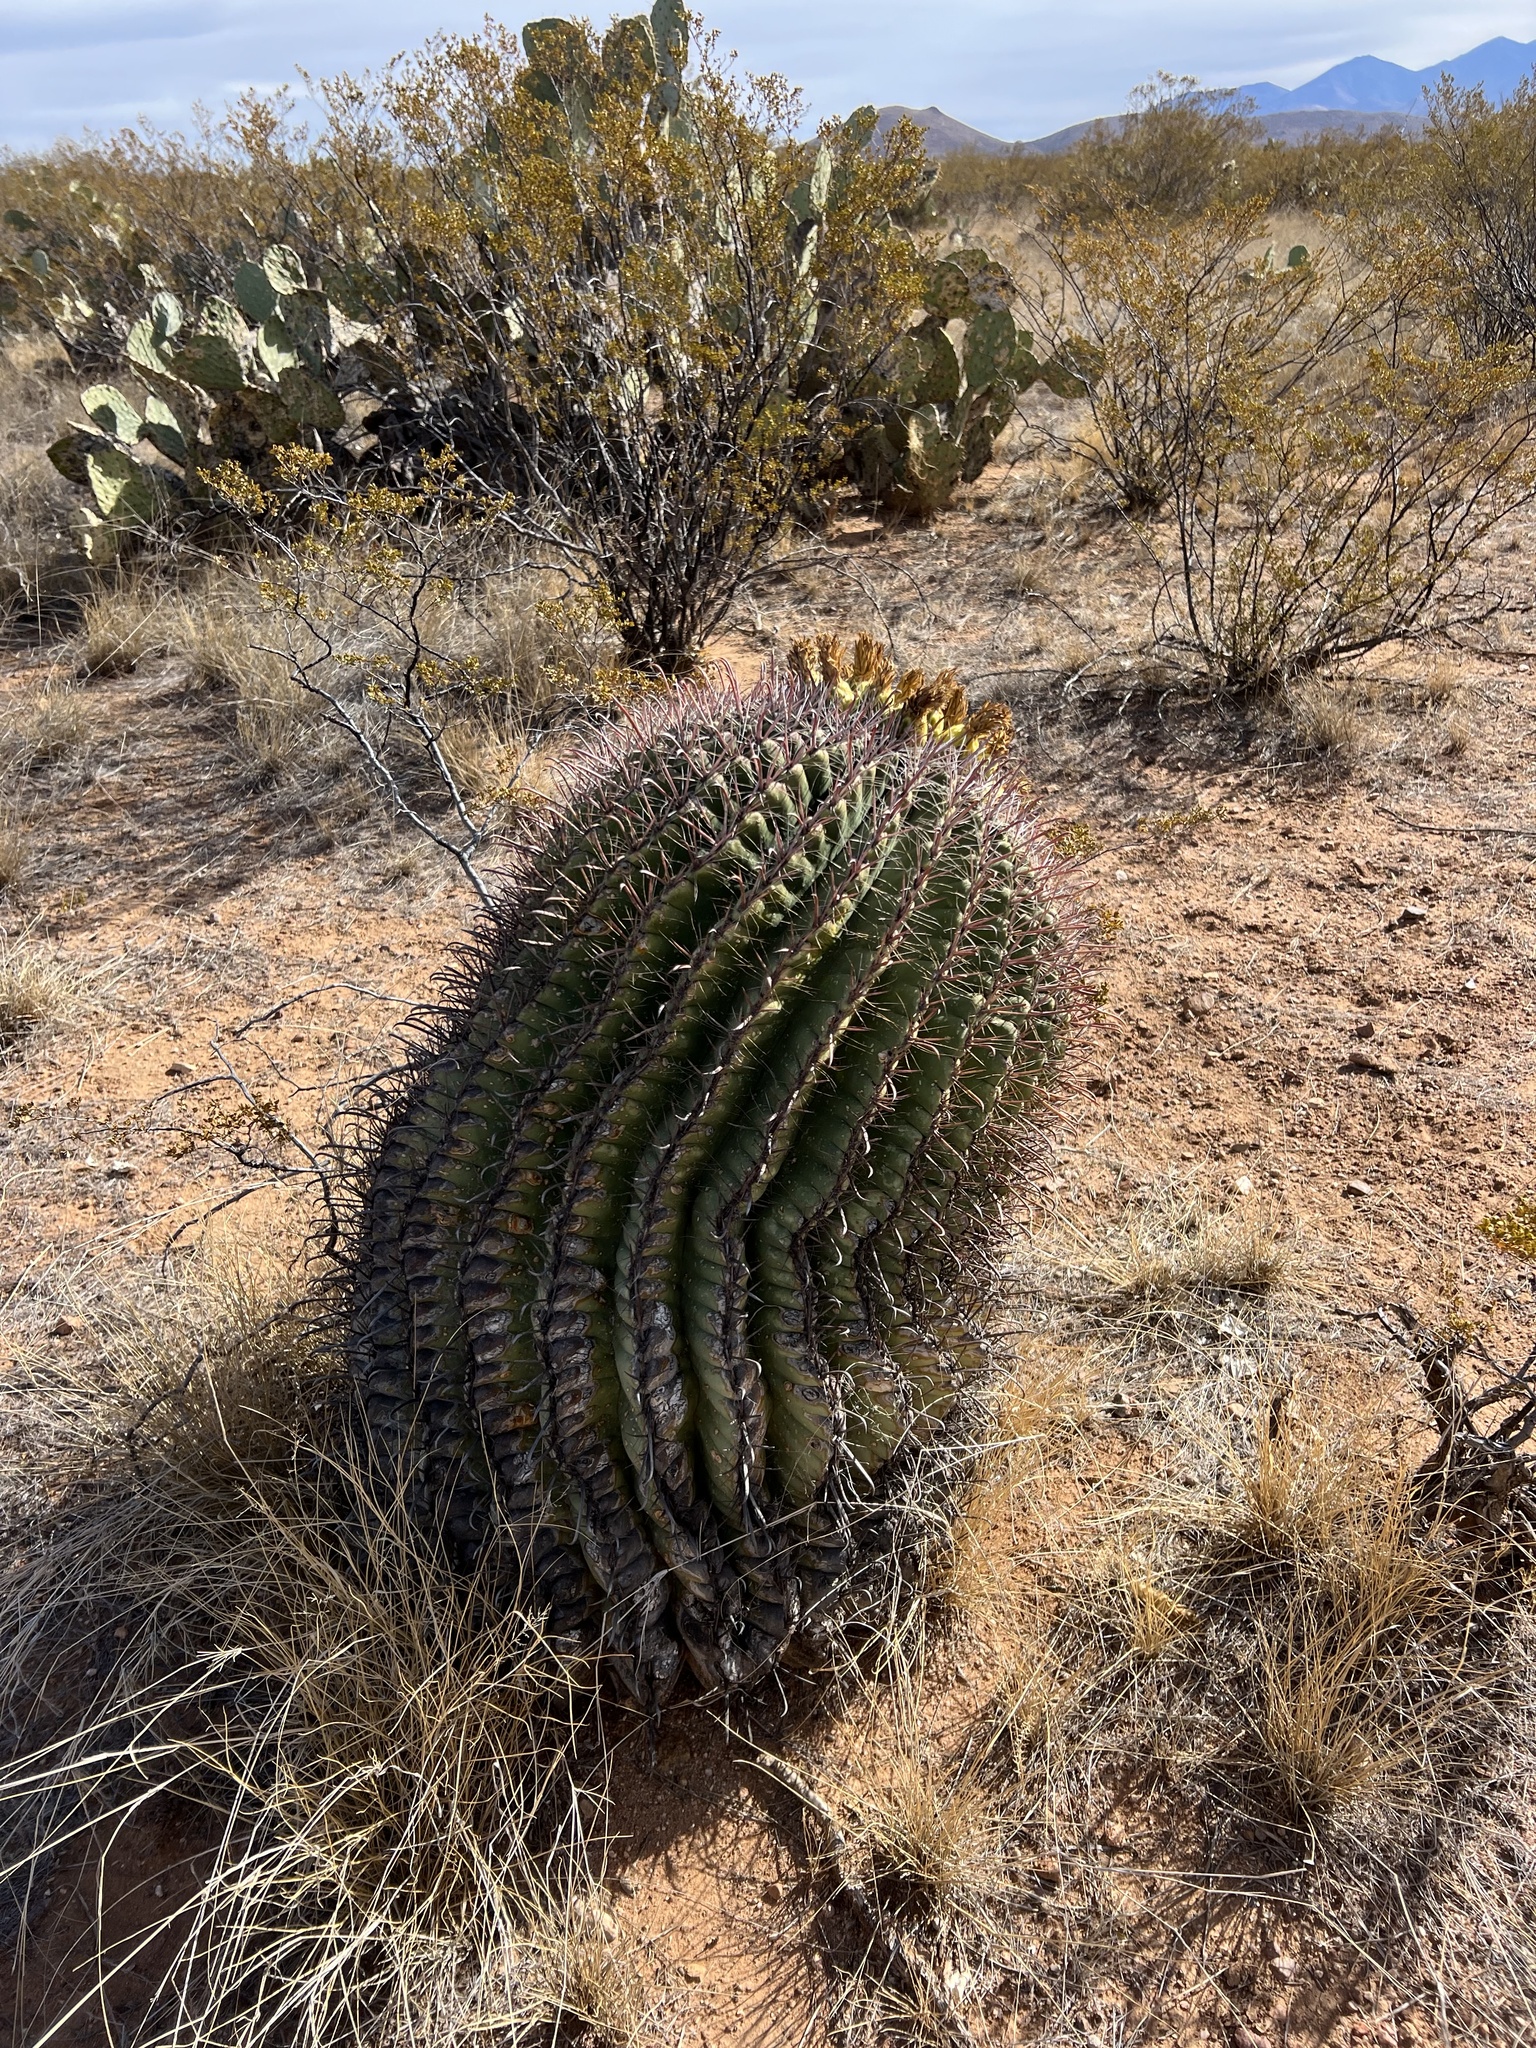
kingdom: Plantae
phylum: Tracheophyta
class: Magnoliopsida
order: Caryophyllales
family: Cactaceae
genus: Ferocactus
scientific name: Ferocactus wislizeni
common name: Candy barrel cactus
